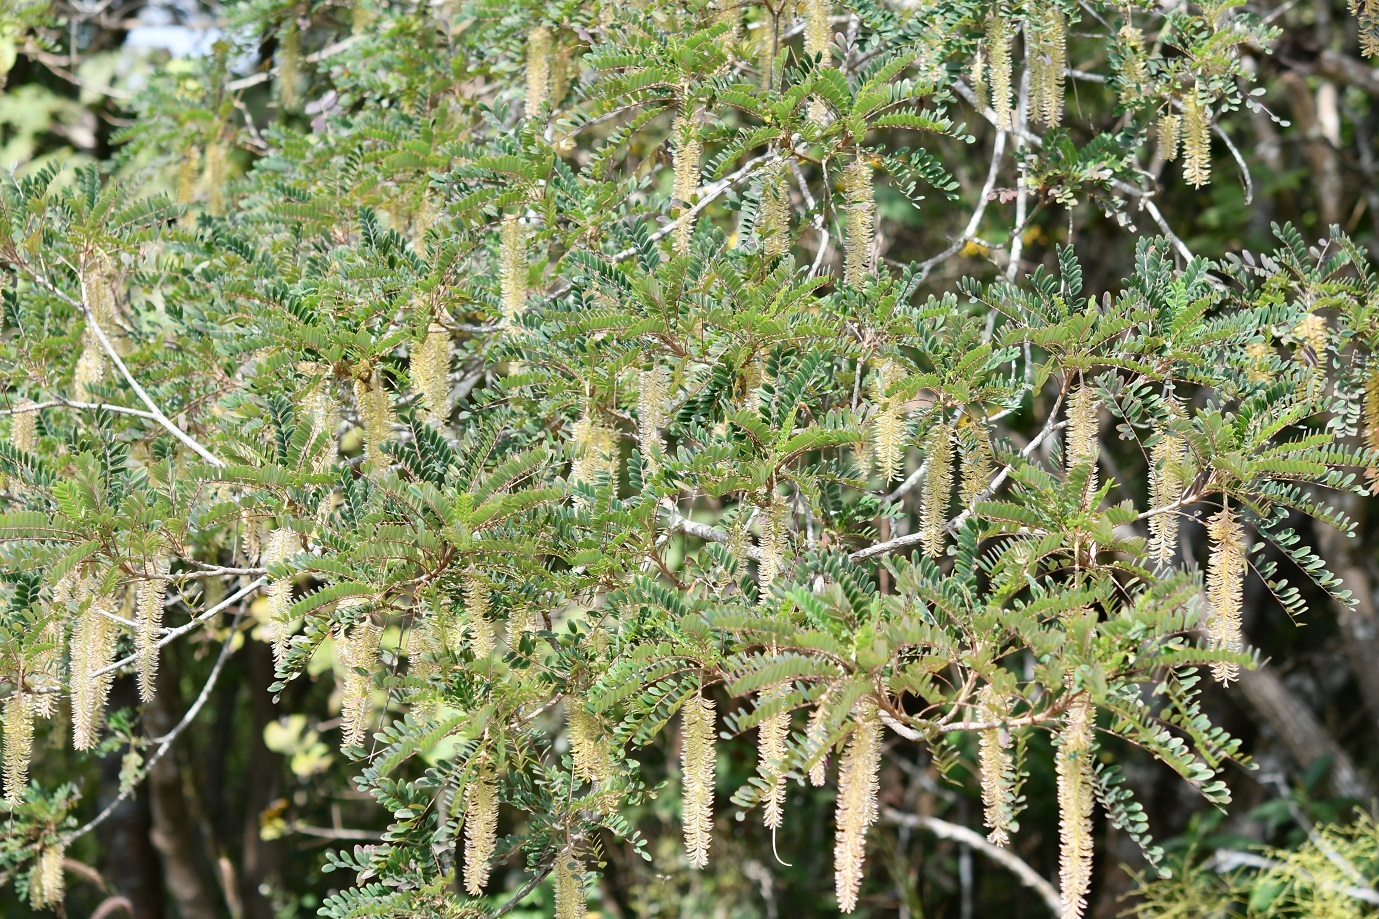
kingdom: Plantae
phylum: Tracheophyta
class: Magnoliopsida
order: Picramniales
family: Picramniaceae
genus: Alvaradoa
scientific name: Alvaradoa amorphoides
